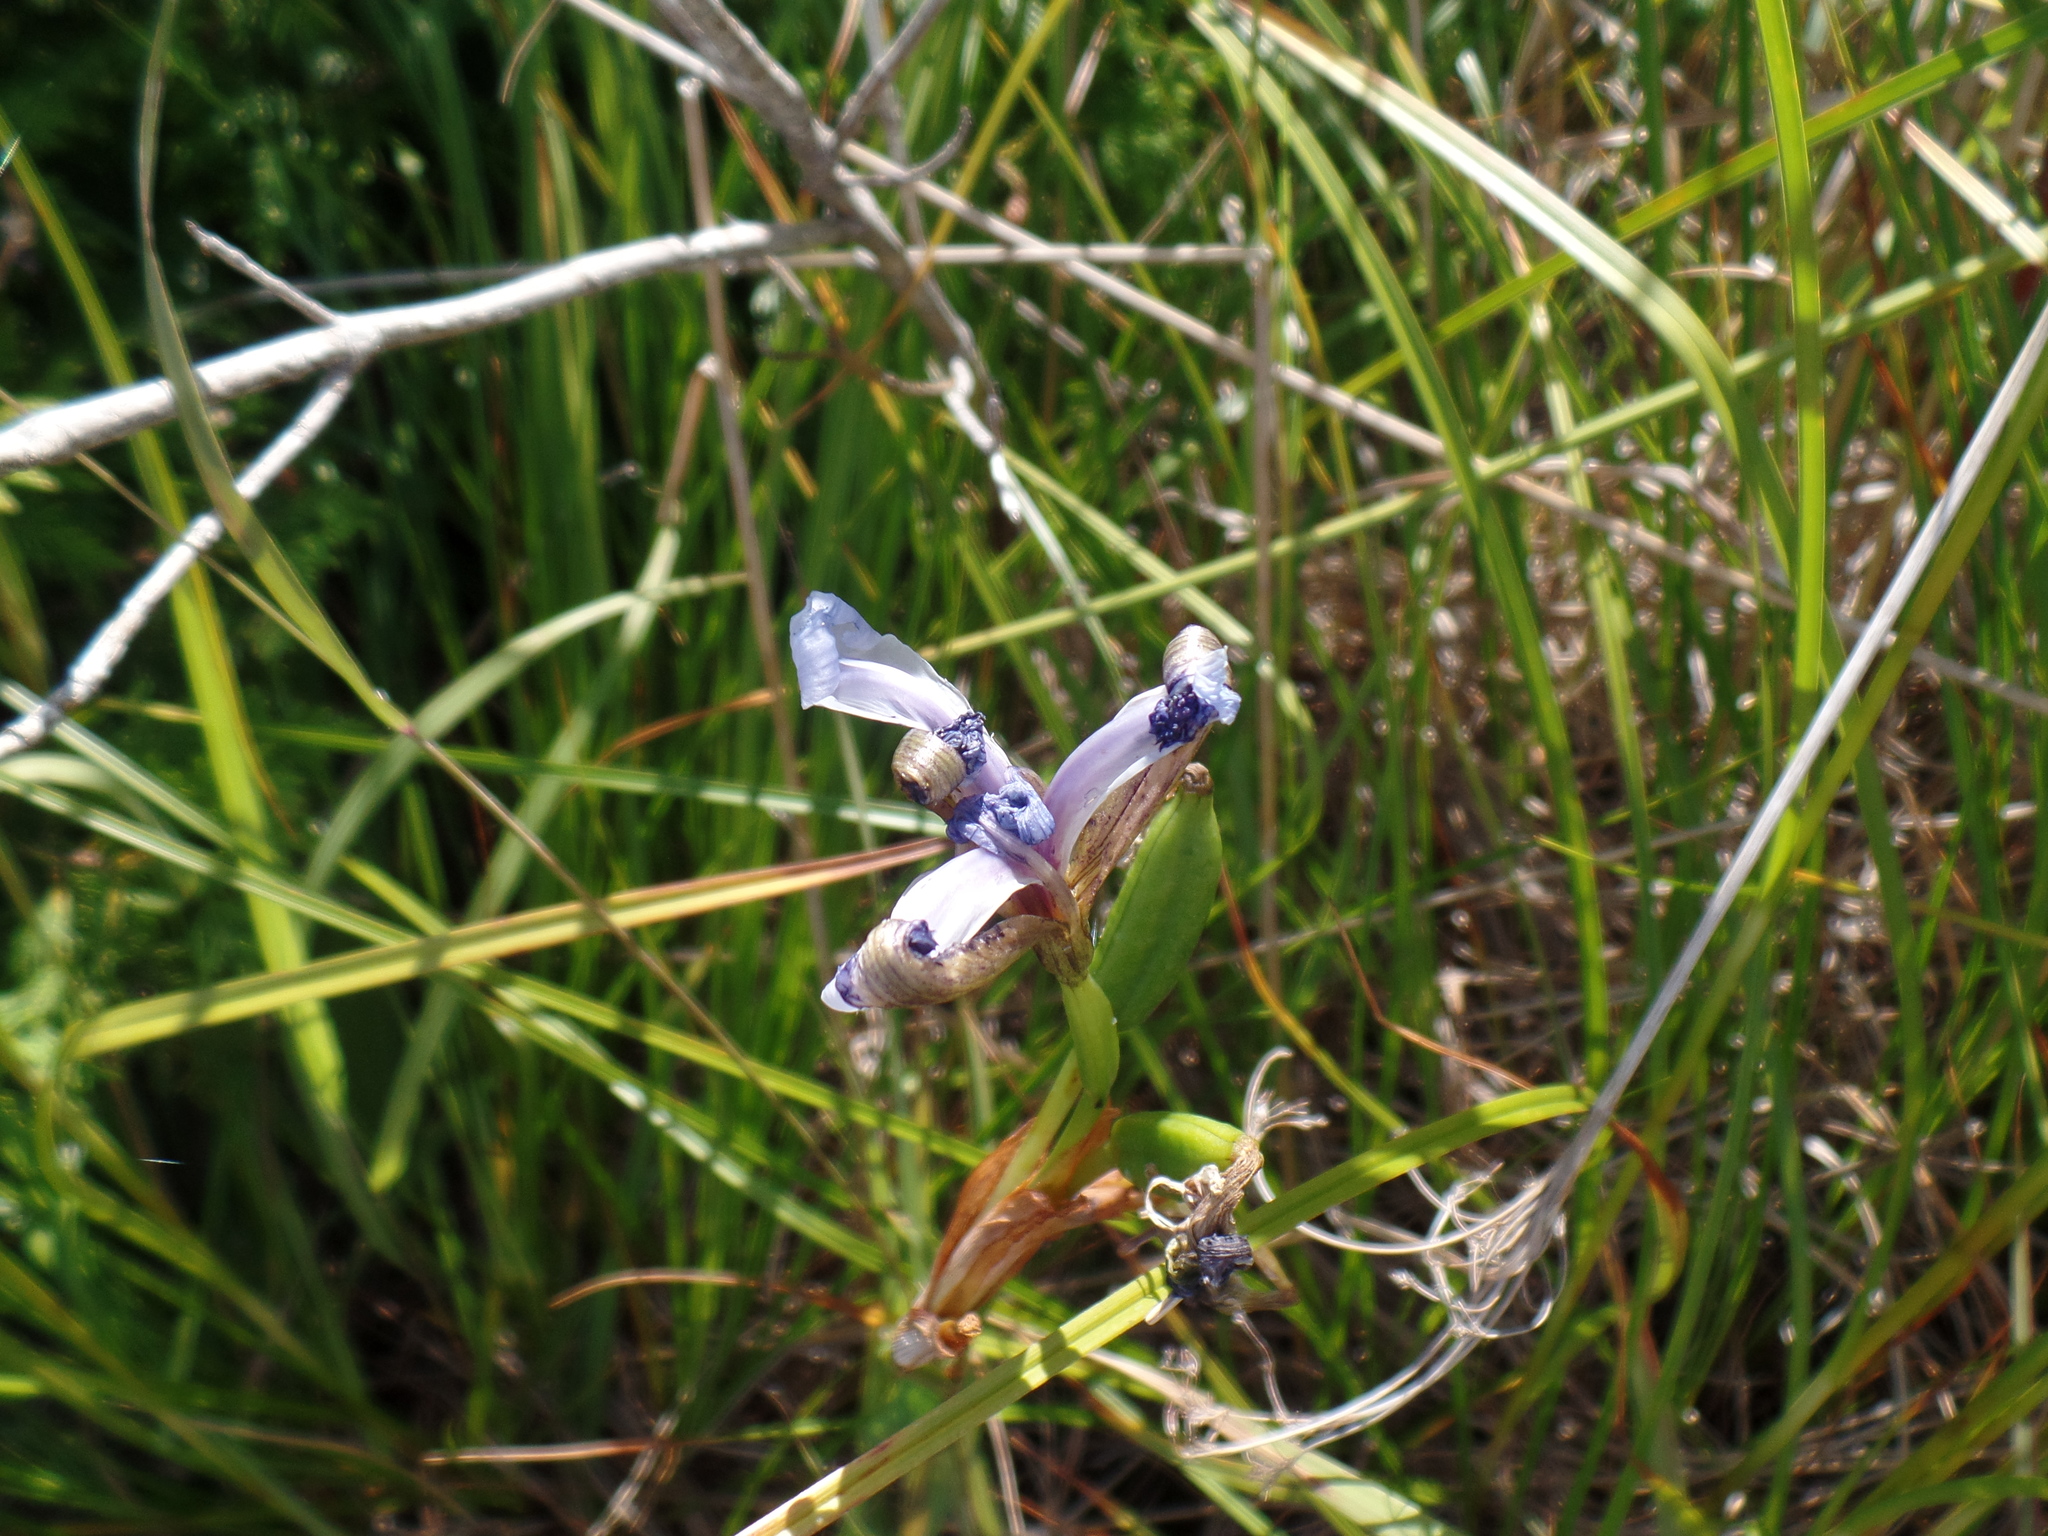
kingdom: Plantae
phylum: Tracheophyta
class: Liliopsida
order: Asparagales
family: Iridaceae
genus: Iris
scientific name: Iris versicolor
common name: Purple iris
